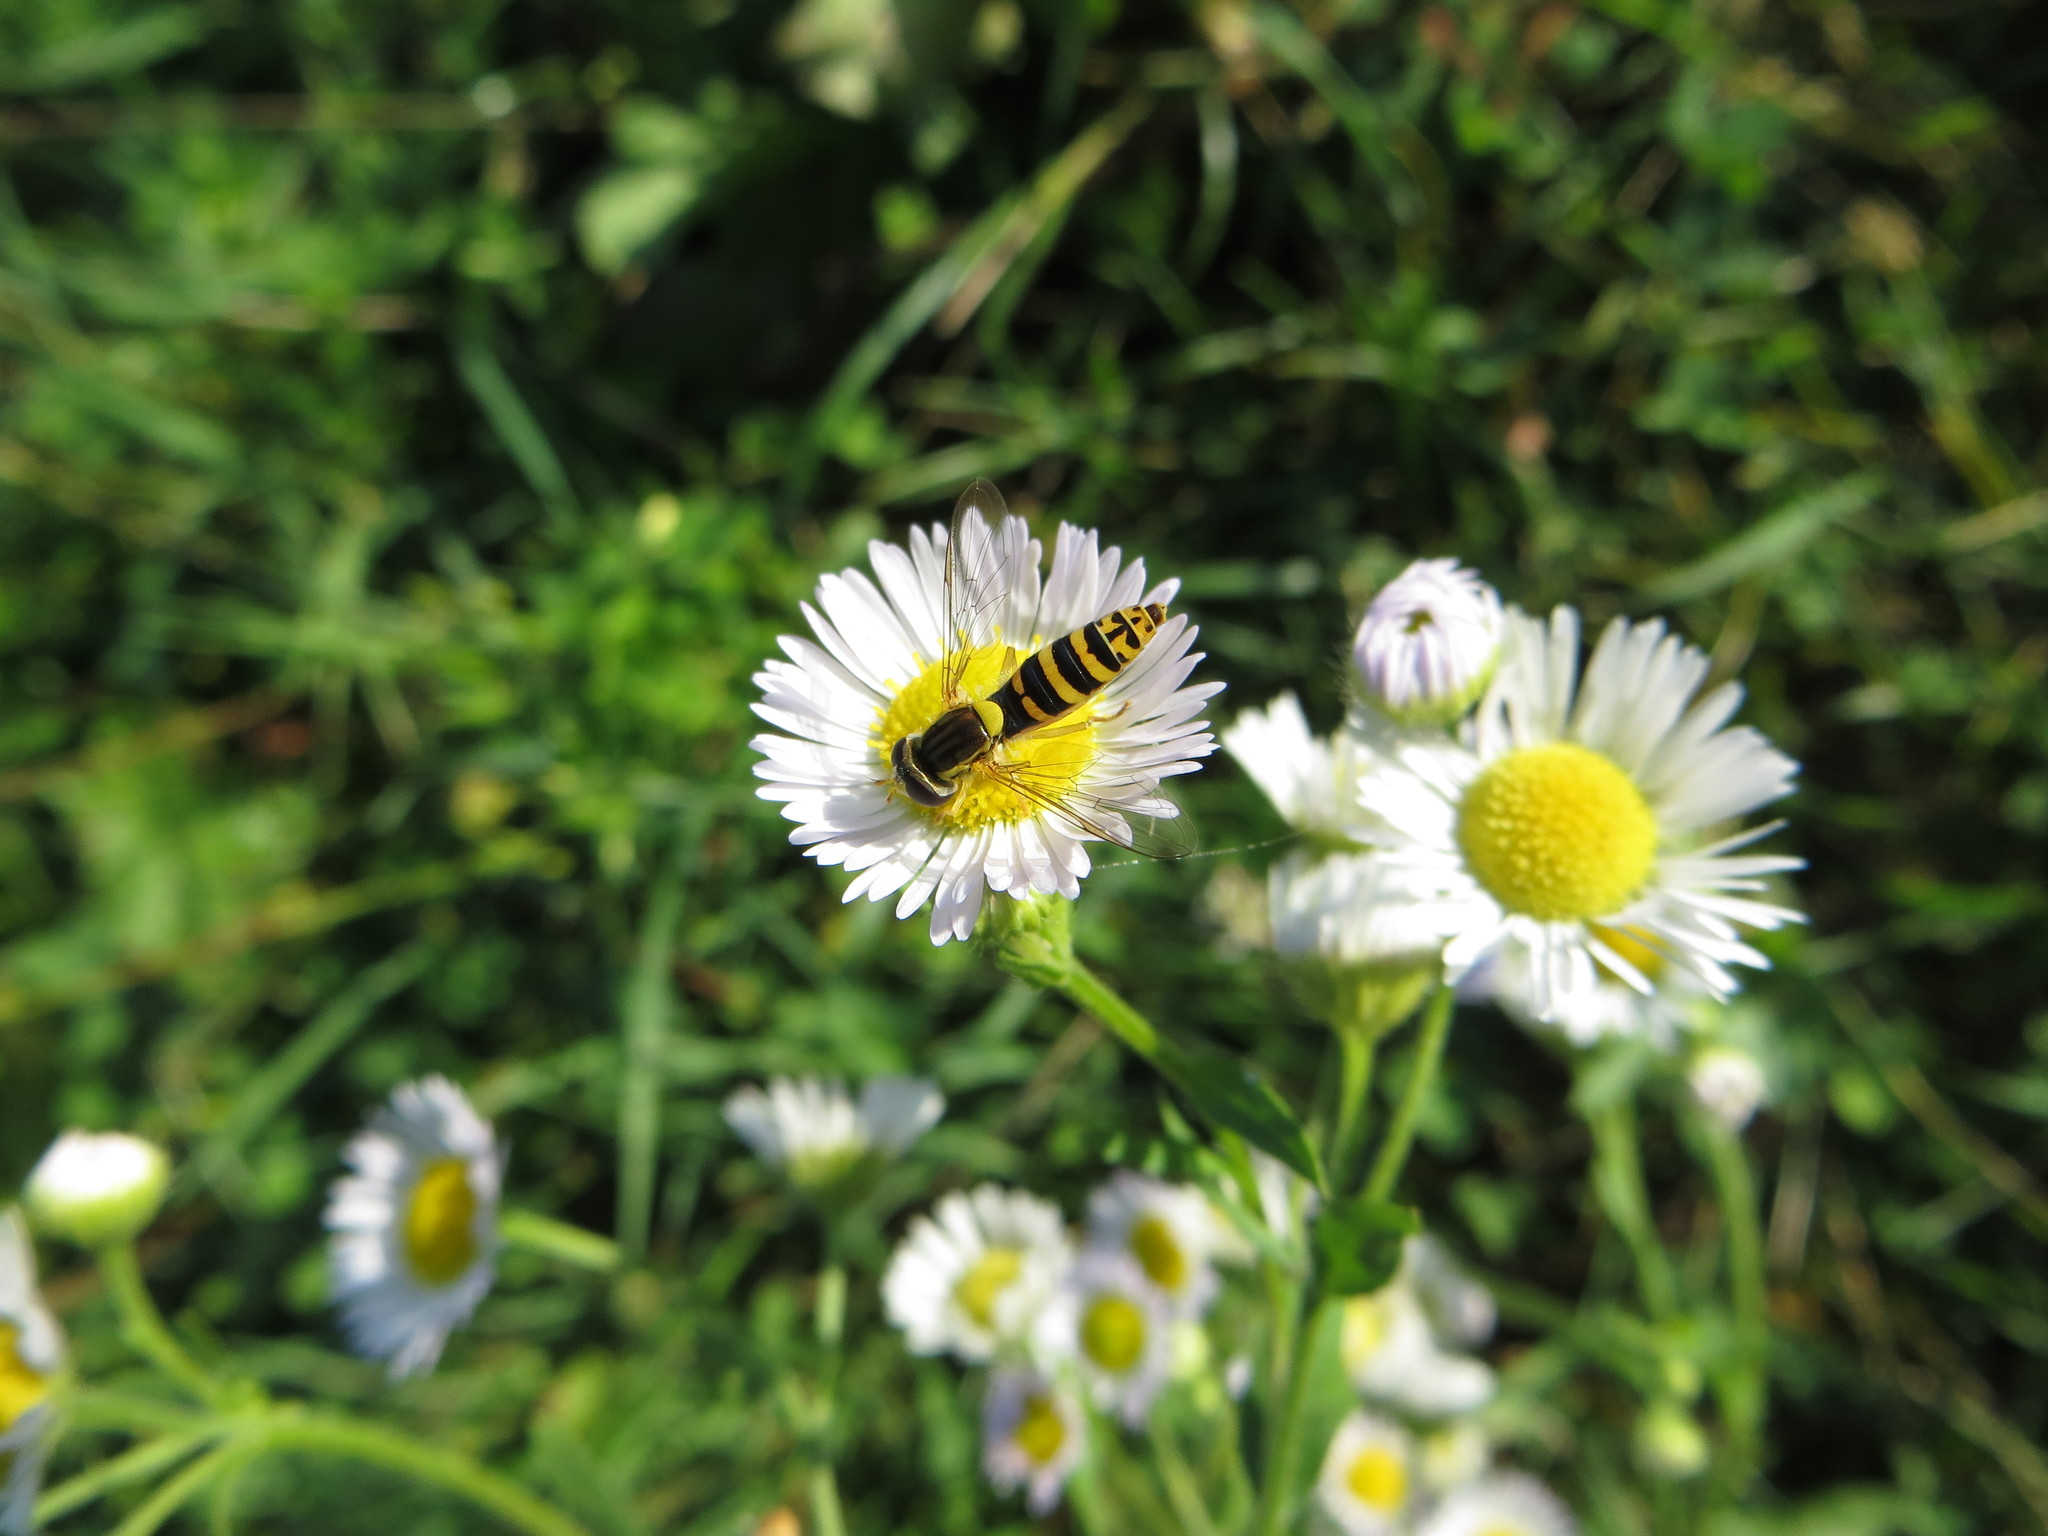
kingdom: Animalia
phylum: Arthropoda
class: Insecta
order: Diptera
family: Syrphidae
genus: Sphaerophoria
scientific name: Sphaerophoria
